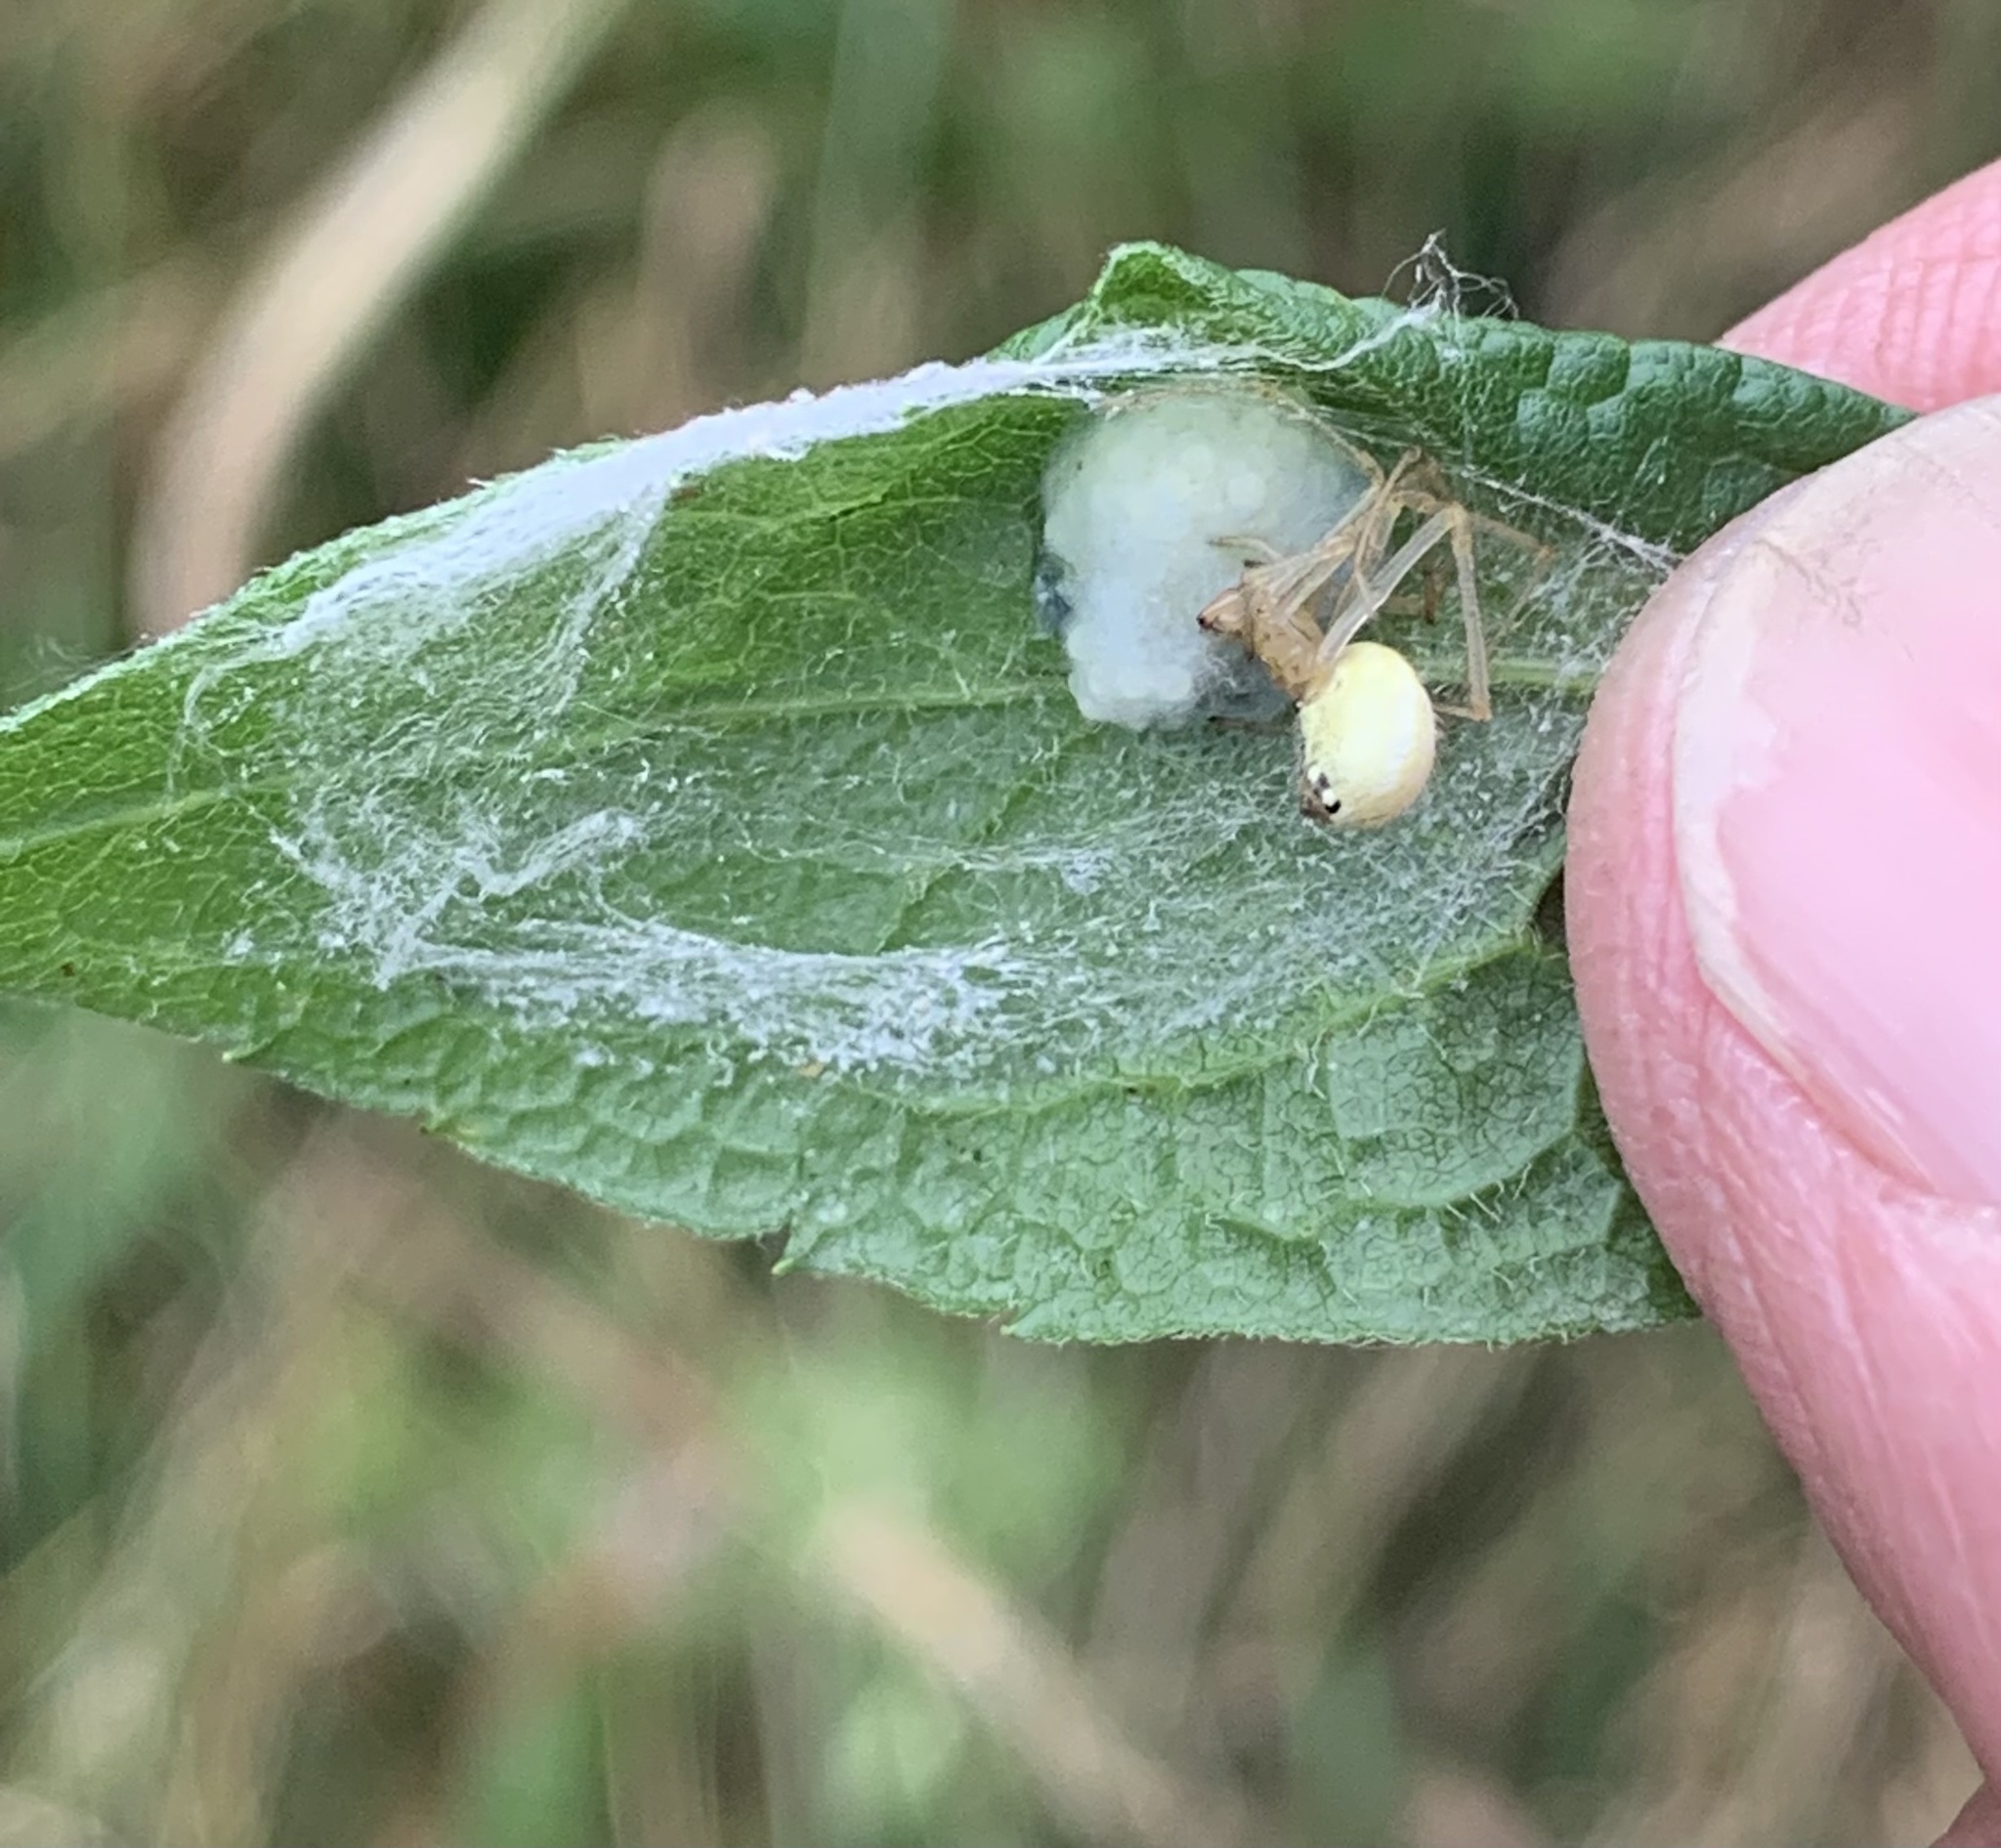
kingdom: Animalia
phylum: Arthropoda
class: Arachnida
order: Araneae
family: Theridiidae
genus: Enoplognatha
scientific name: Enoplognatha ovata
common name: Common candy-striped spider
